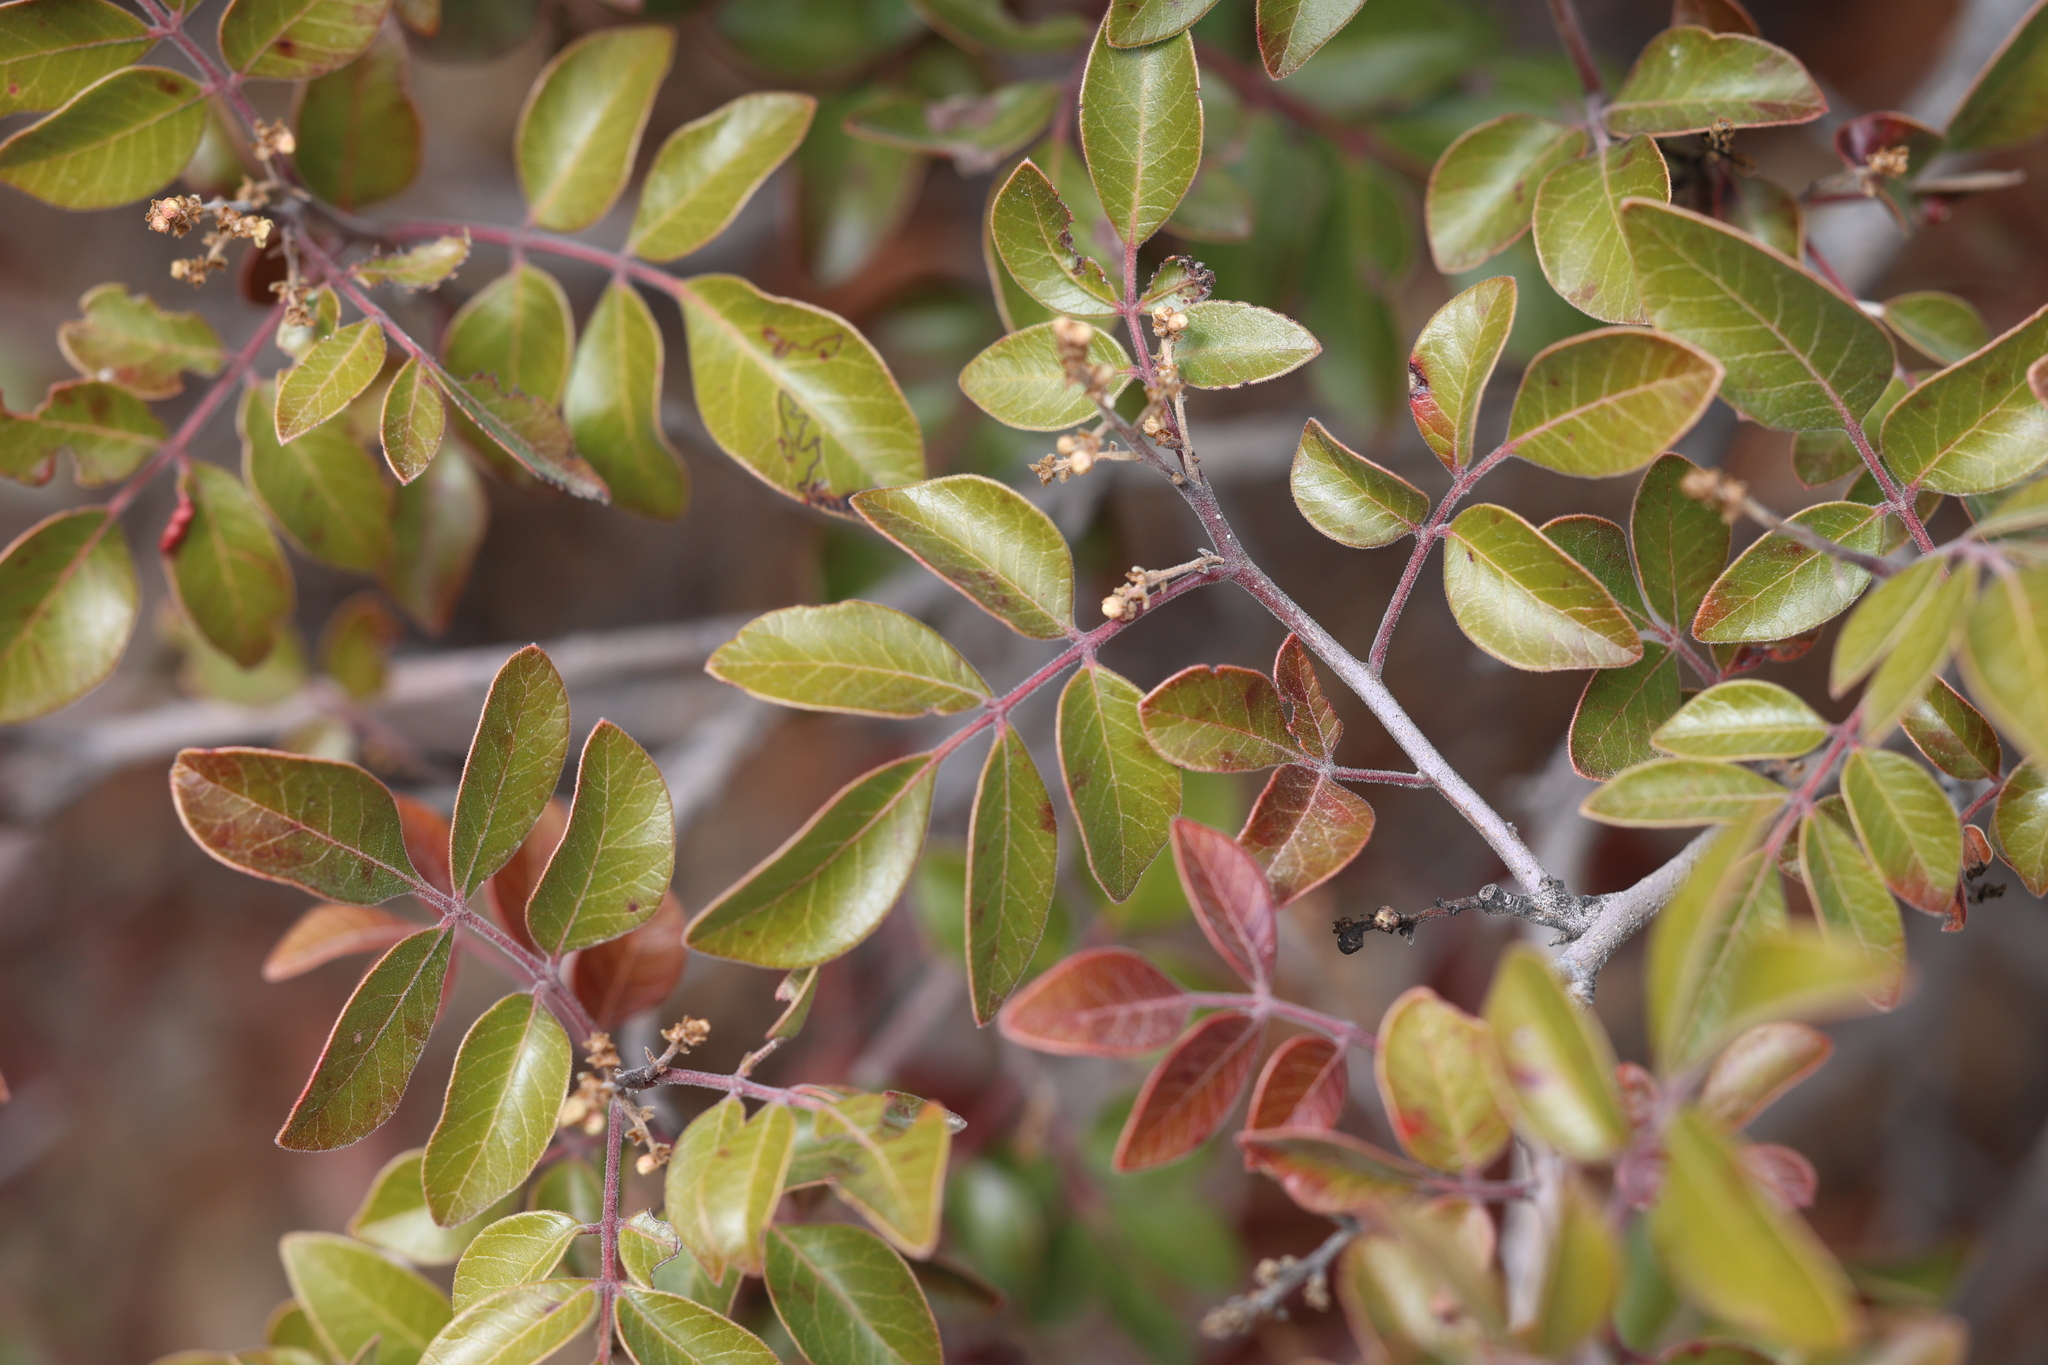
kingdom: Plantae
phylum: Tracheophyta
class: Magnoliopsida
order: Sapindales
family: Anacardiaceae
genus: Rhus
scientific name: Rhus virens
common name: Evergreen sumac
